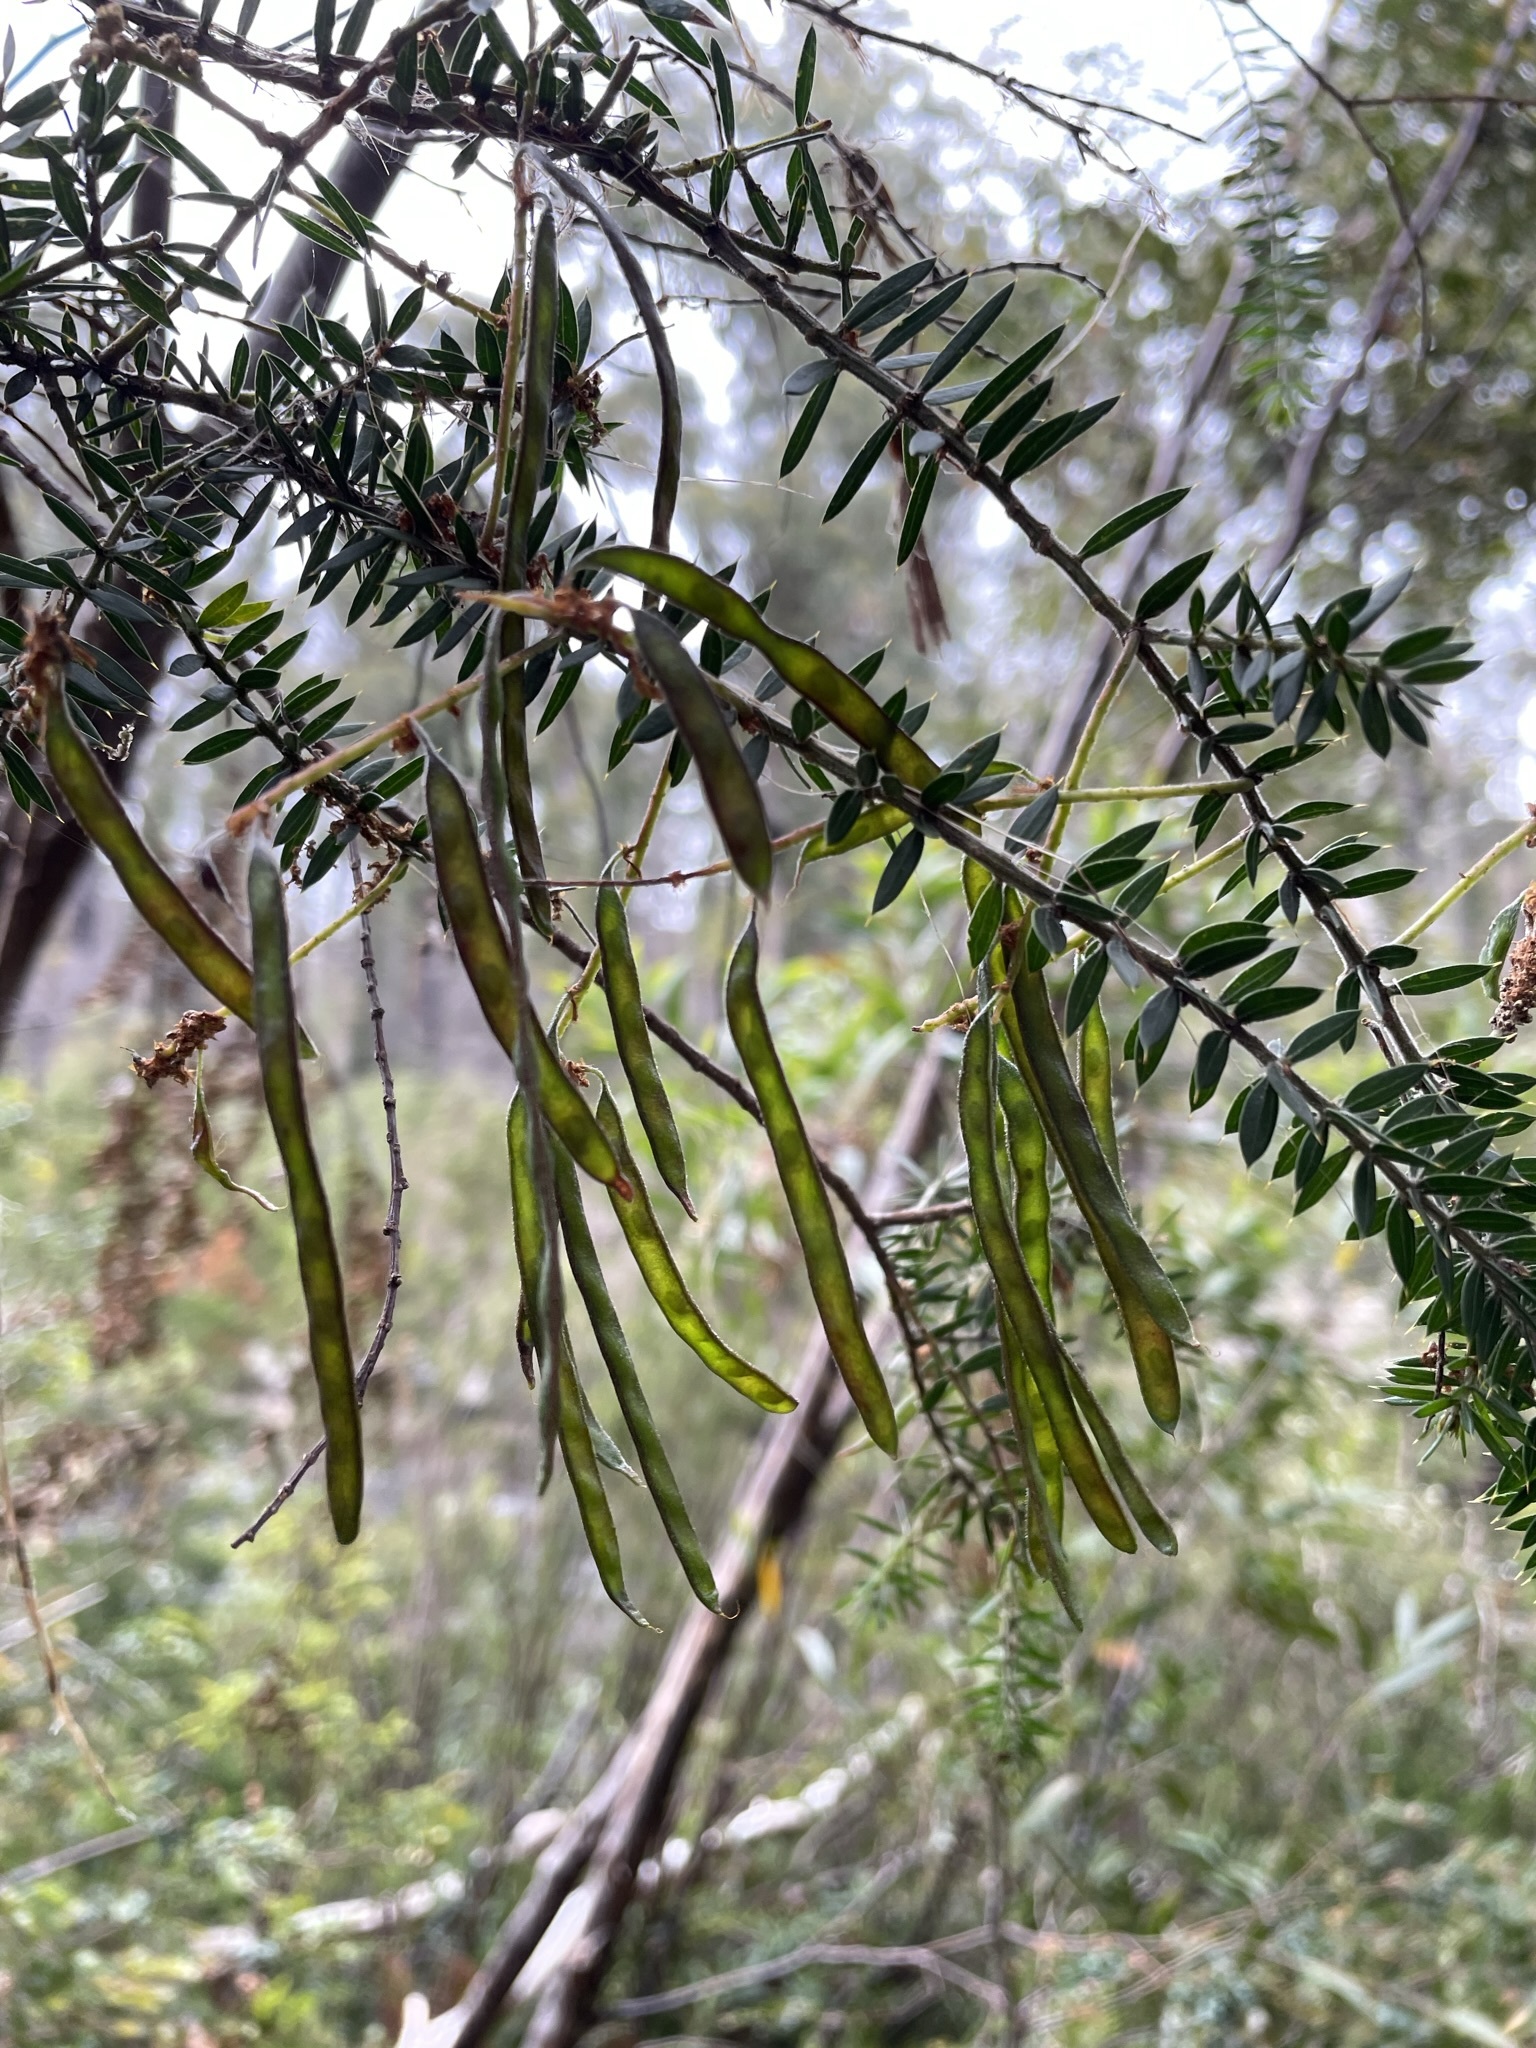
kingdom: Plantae
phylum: Tracheophyta
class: Magnoliopsida
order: Fabales
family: Fabaceae
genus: Acacia
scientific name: Acacia verticillata
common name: Prickly moses
